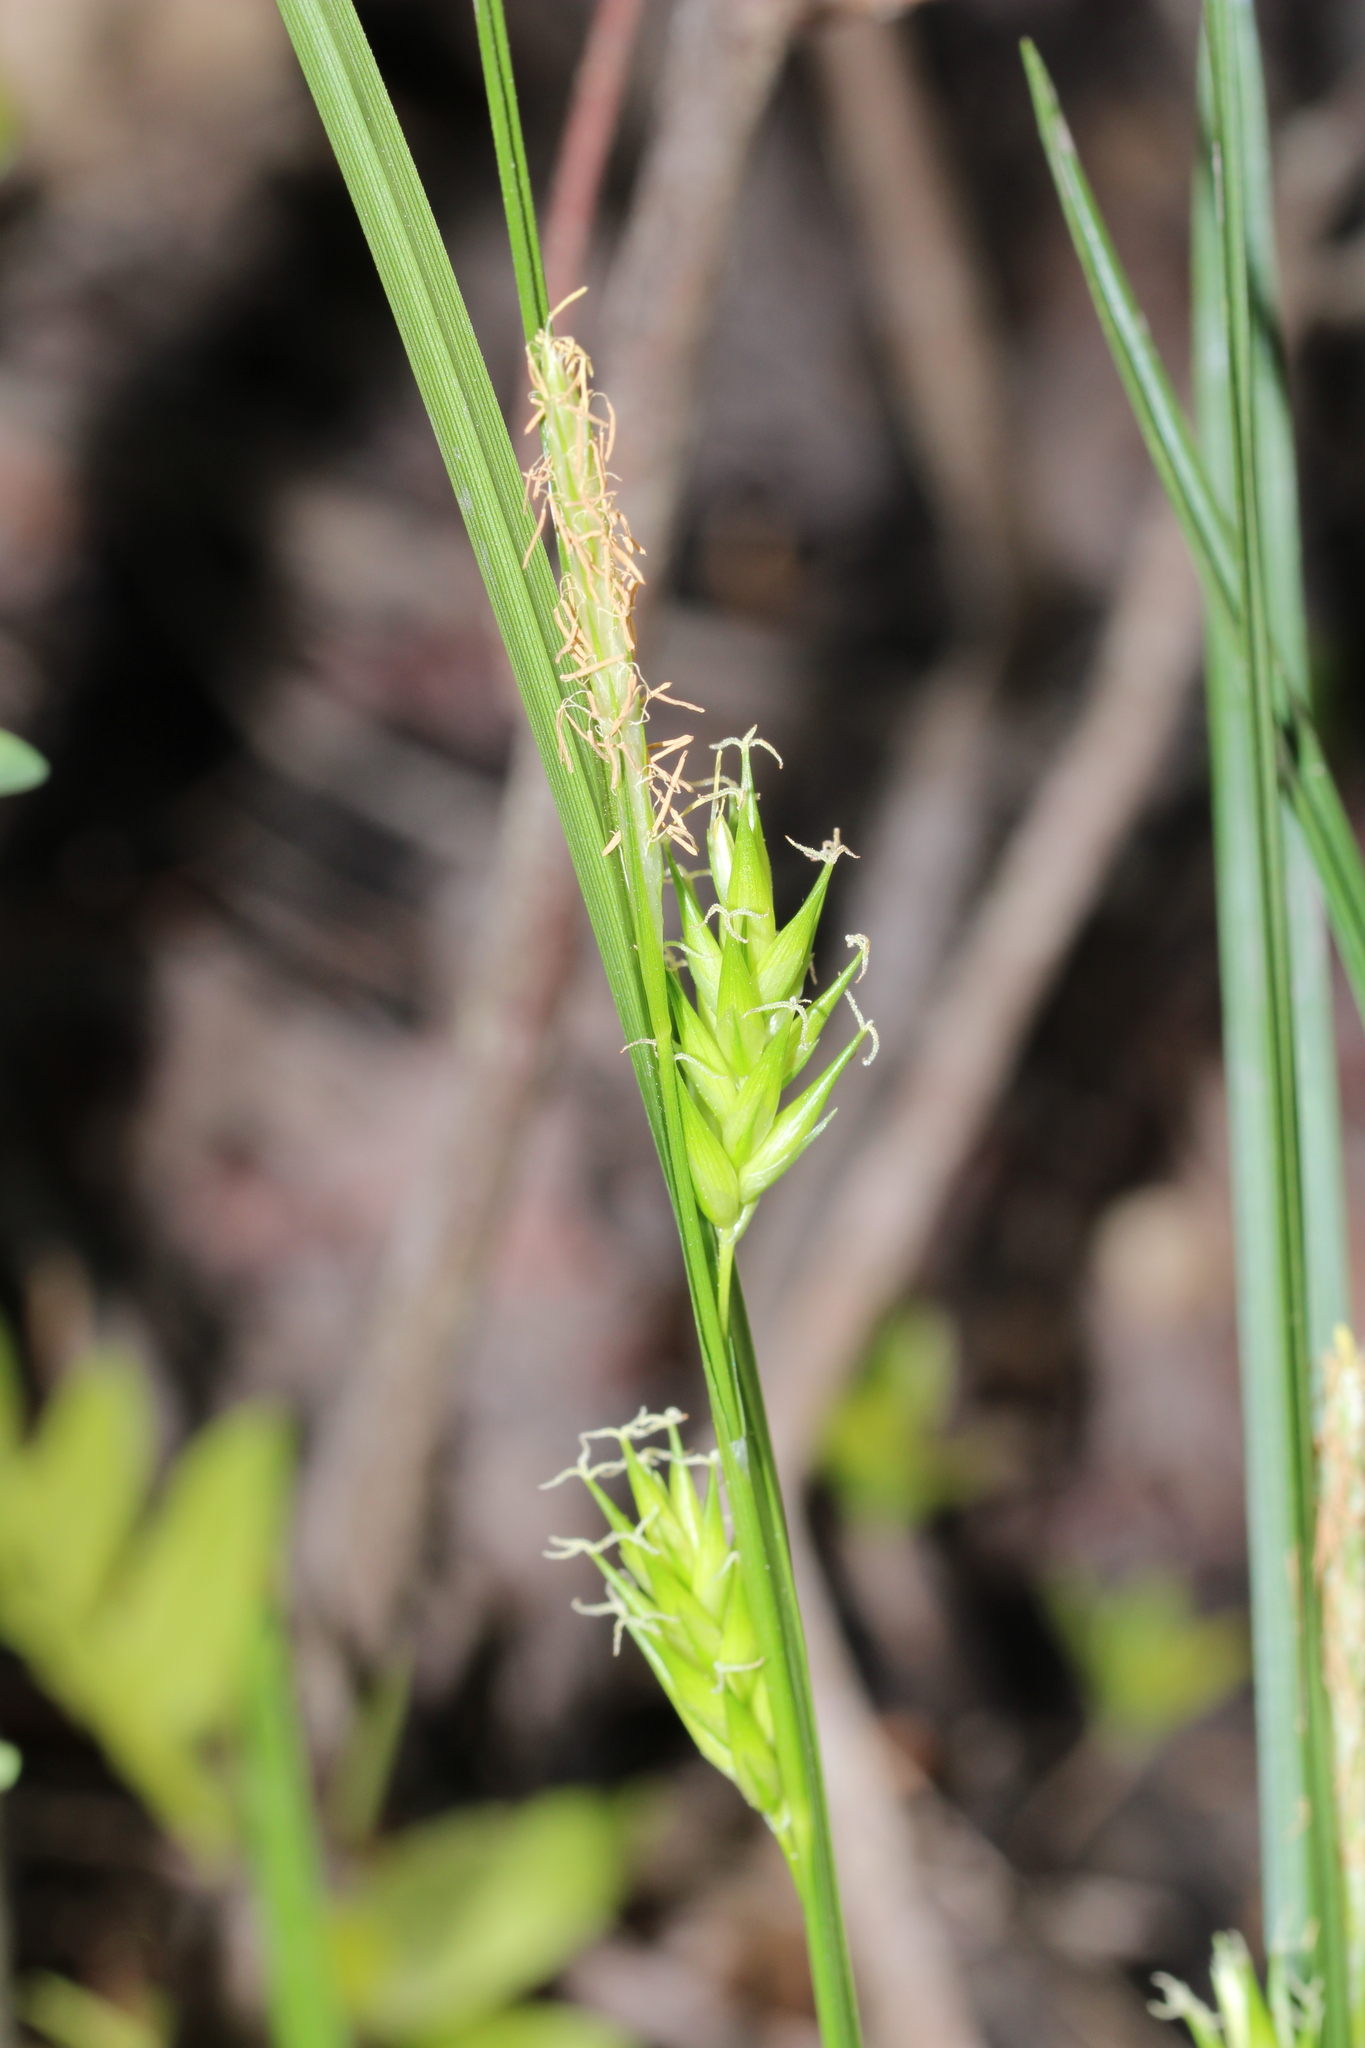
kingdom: Plantae
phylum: Tracheophyta
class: Liliopsida
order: Poales
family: Cyperaceae
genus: Carex
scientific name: Carex lonchocarpa
